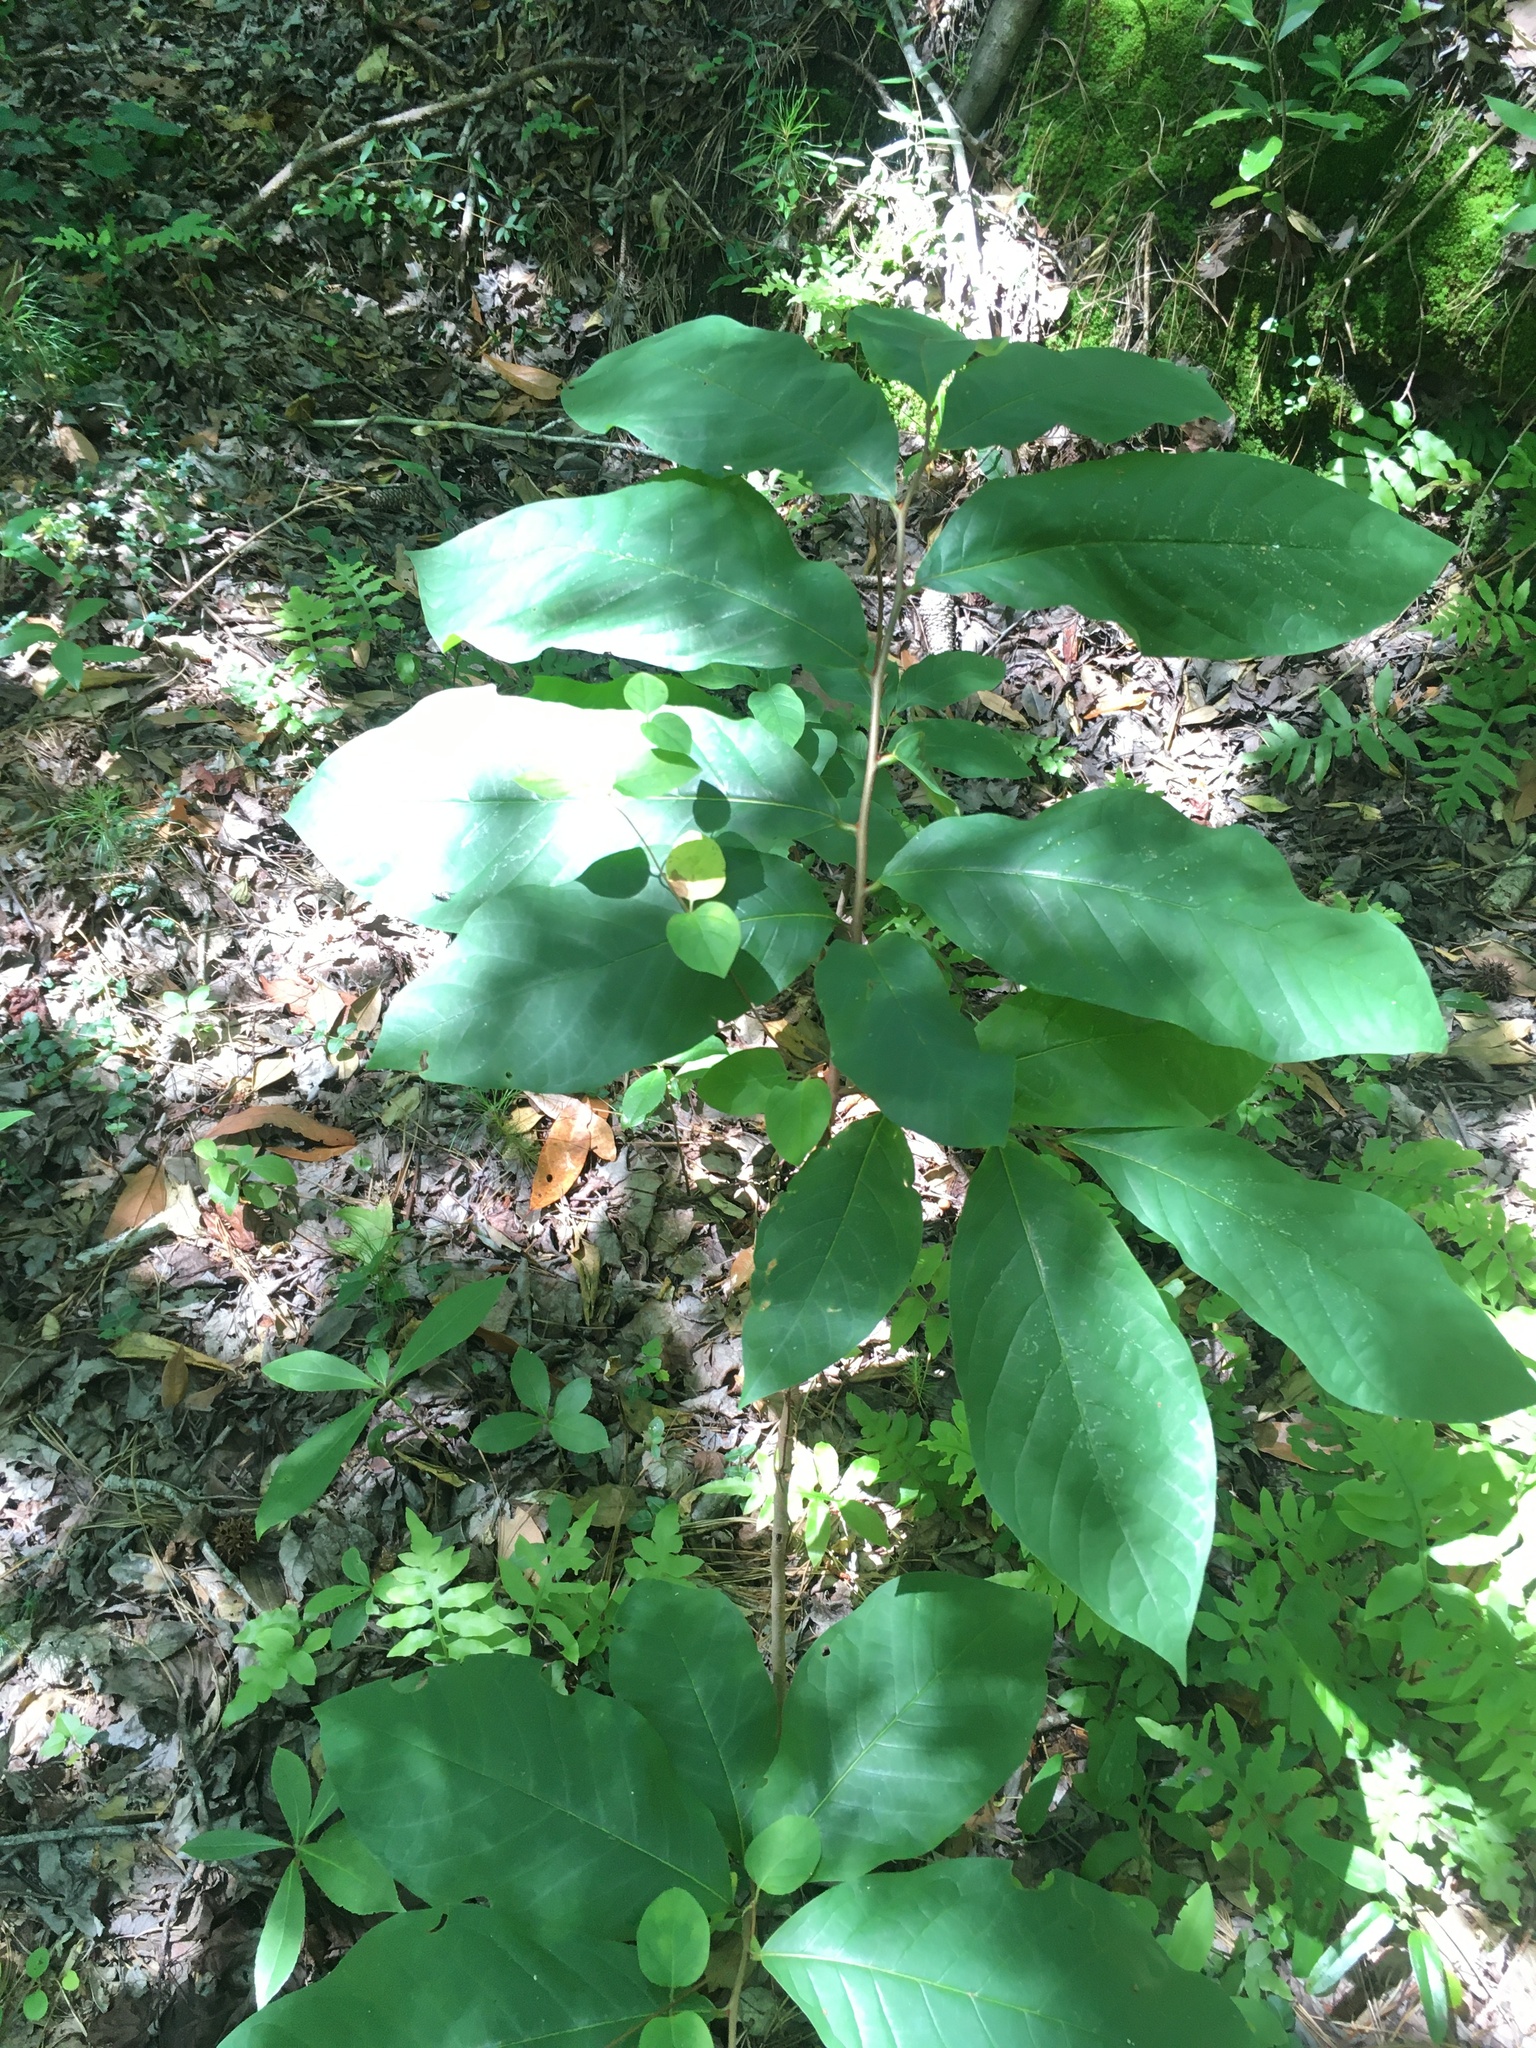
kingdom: Plantae
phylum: Tracheophyta
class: Magnoliopsida
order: Magnoliales
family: Annonaceae
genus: Asimina
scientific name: Asimina triloba
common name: Dog-banana
